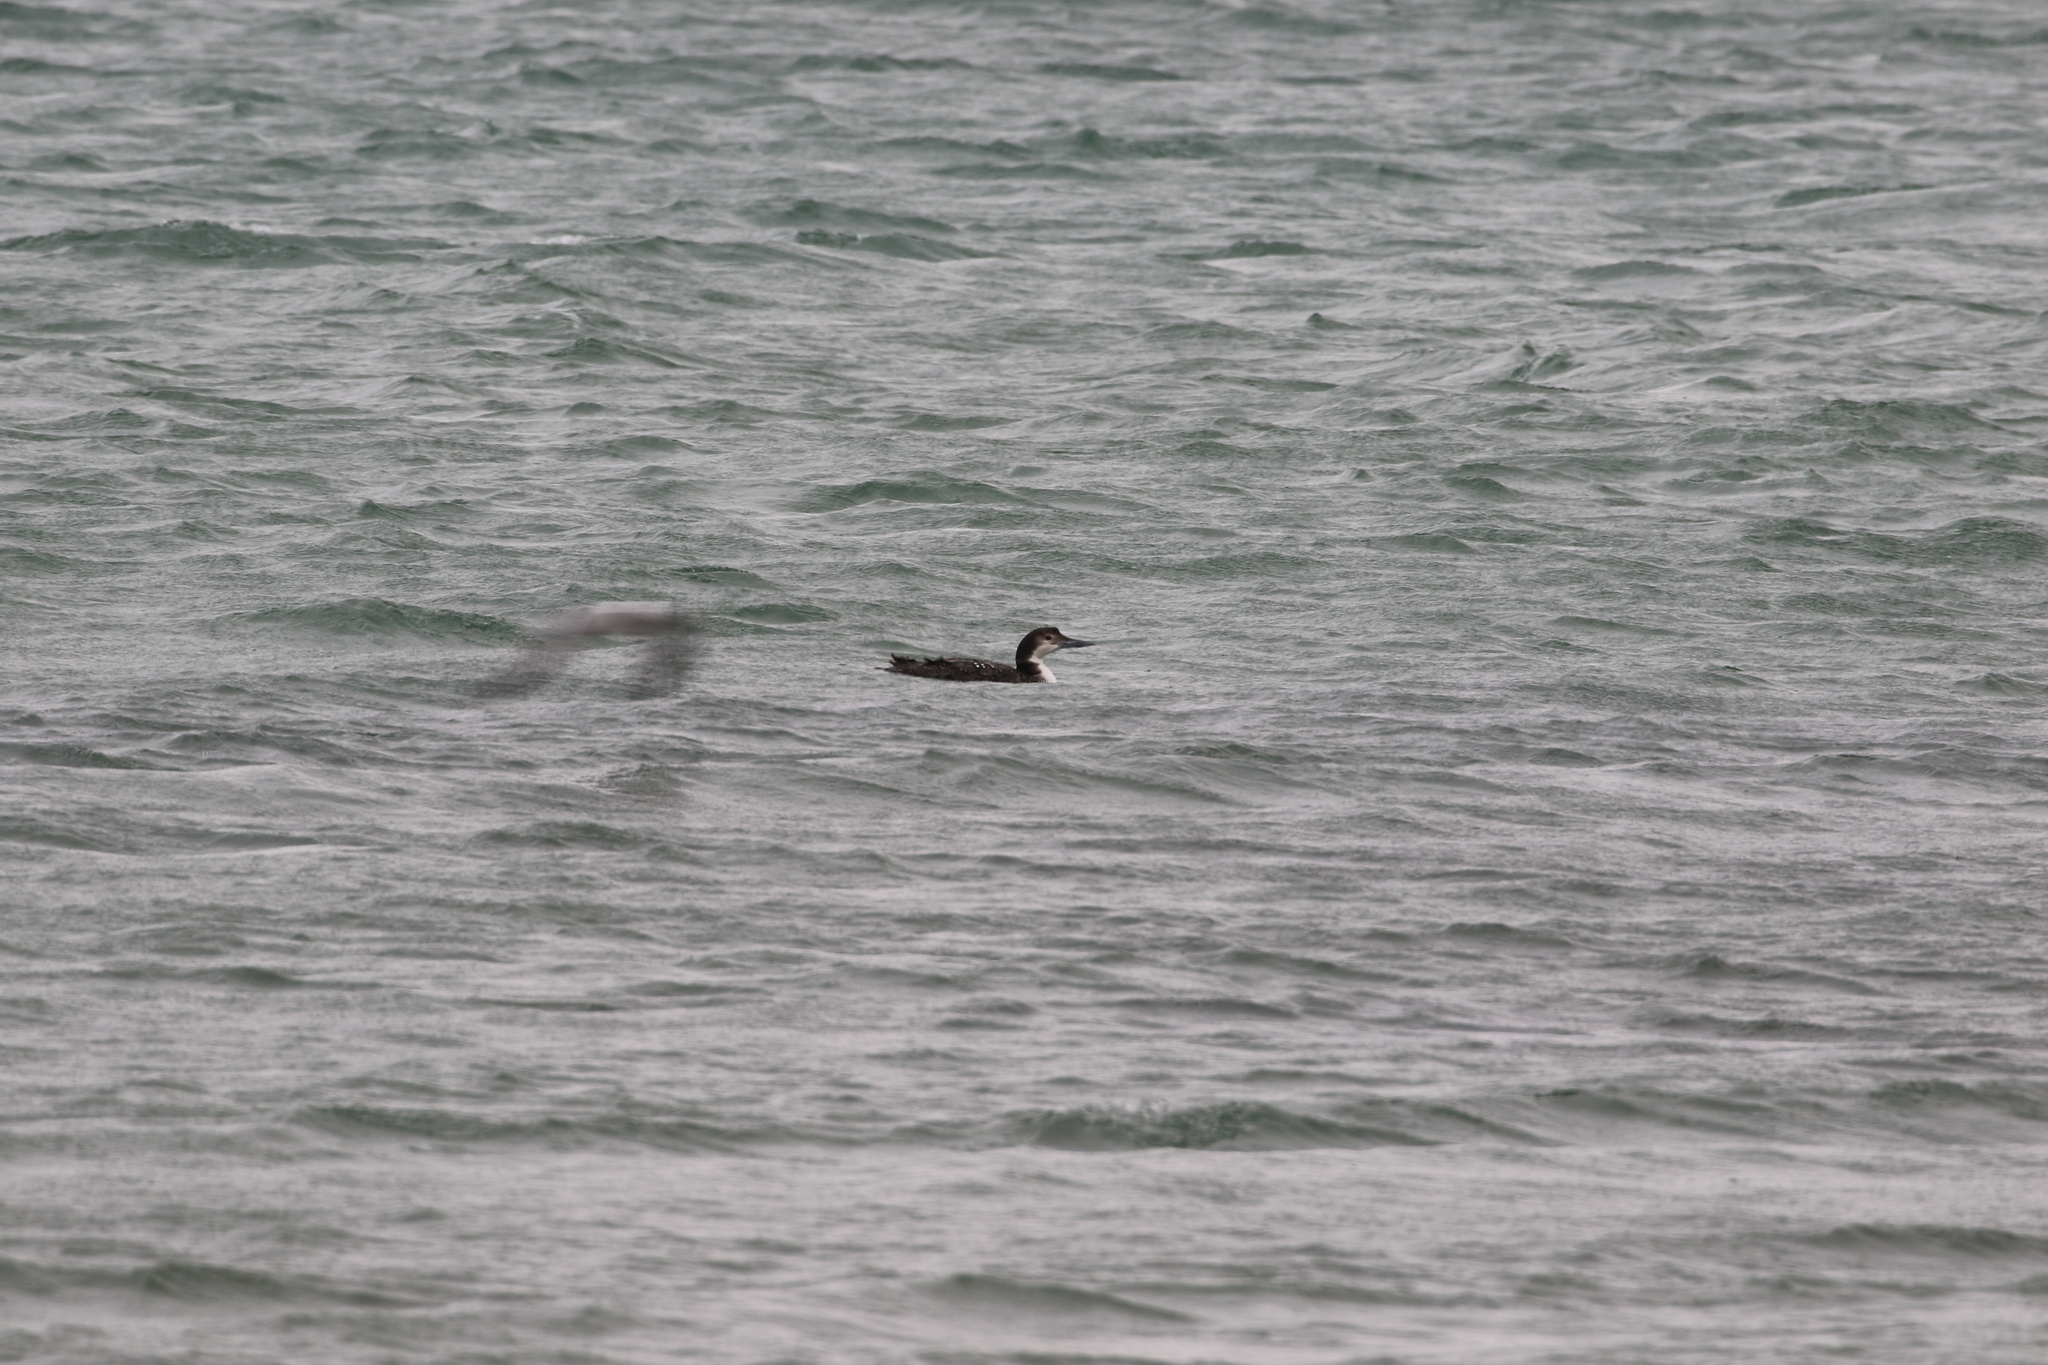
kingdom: Animalia
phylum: Chordata
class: Aves
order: Gaviiformes
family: Gaviidae
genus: Gavia
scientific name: Gavia immer
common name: Common loon
